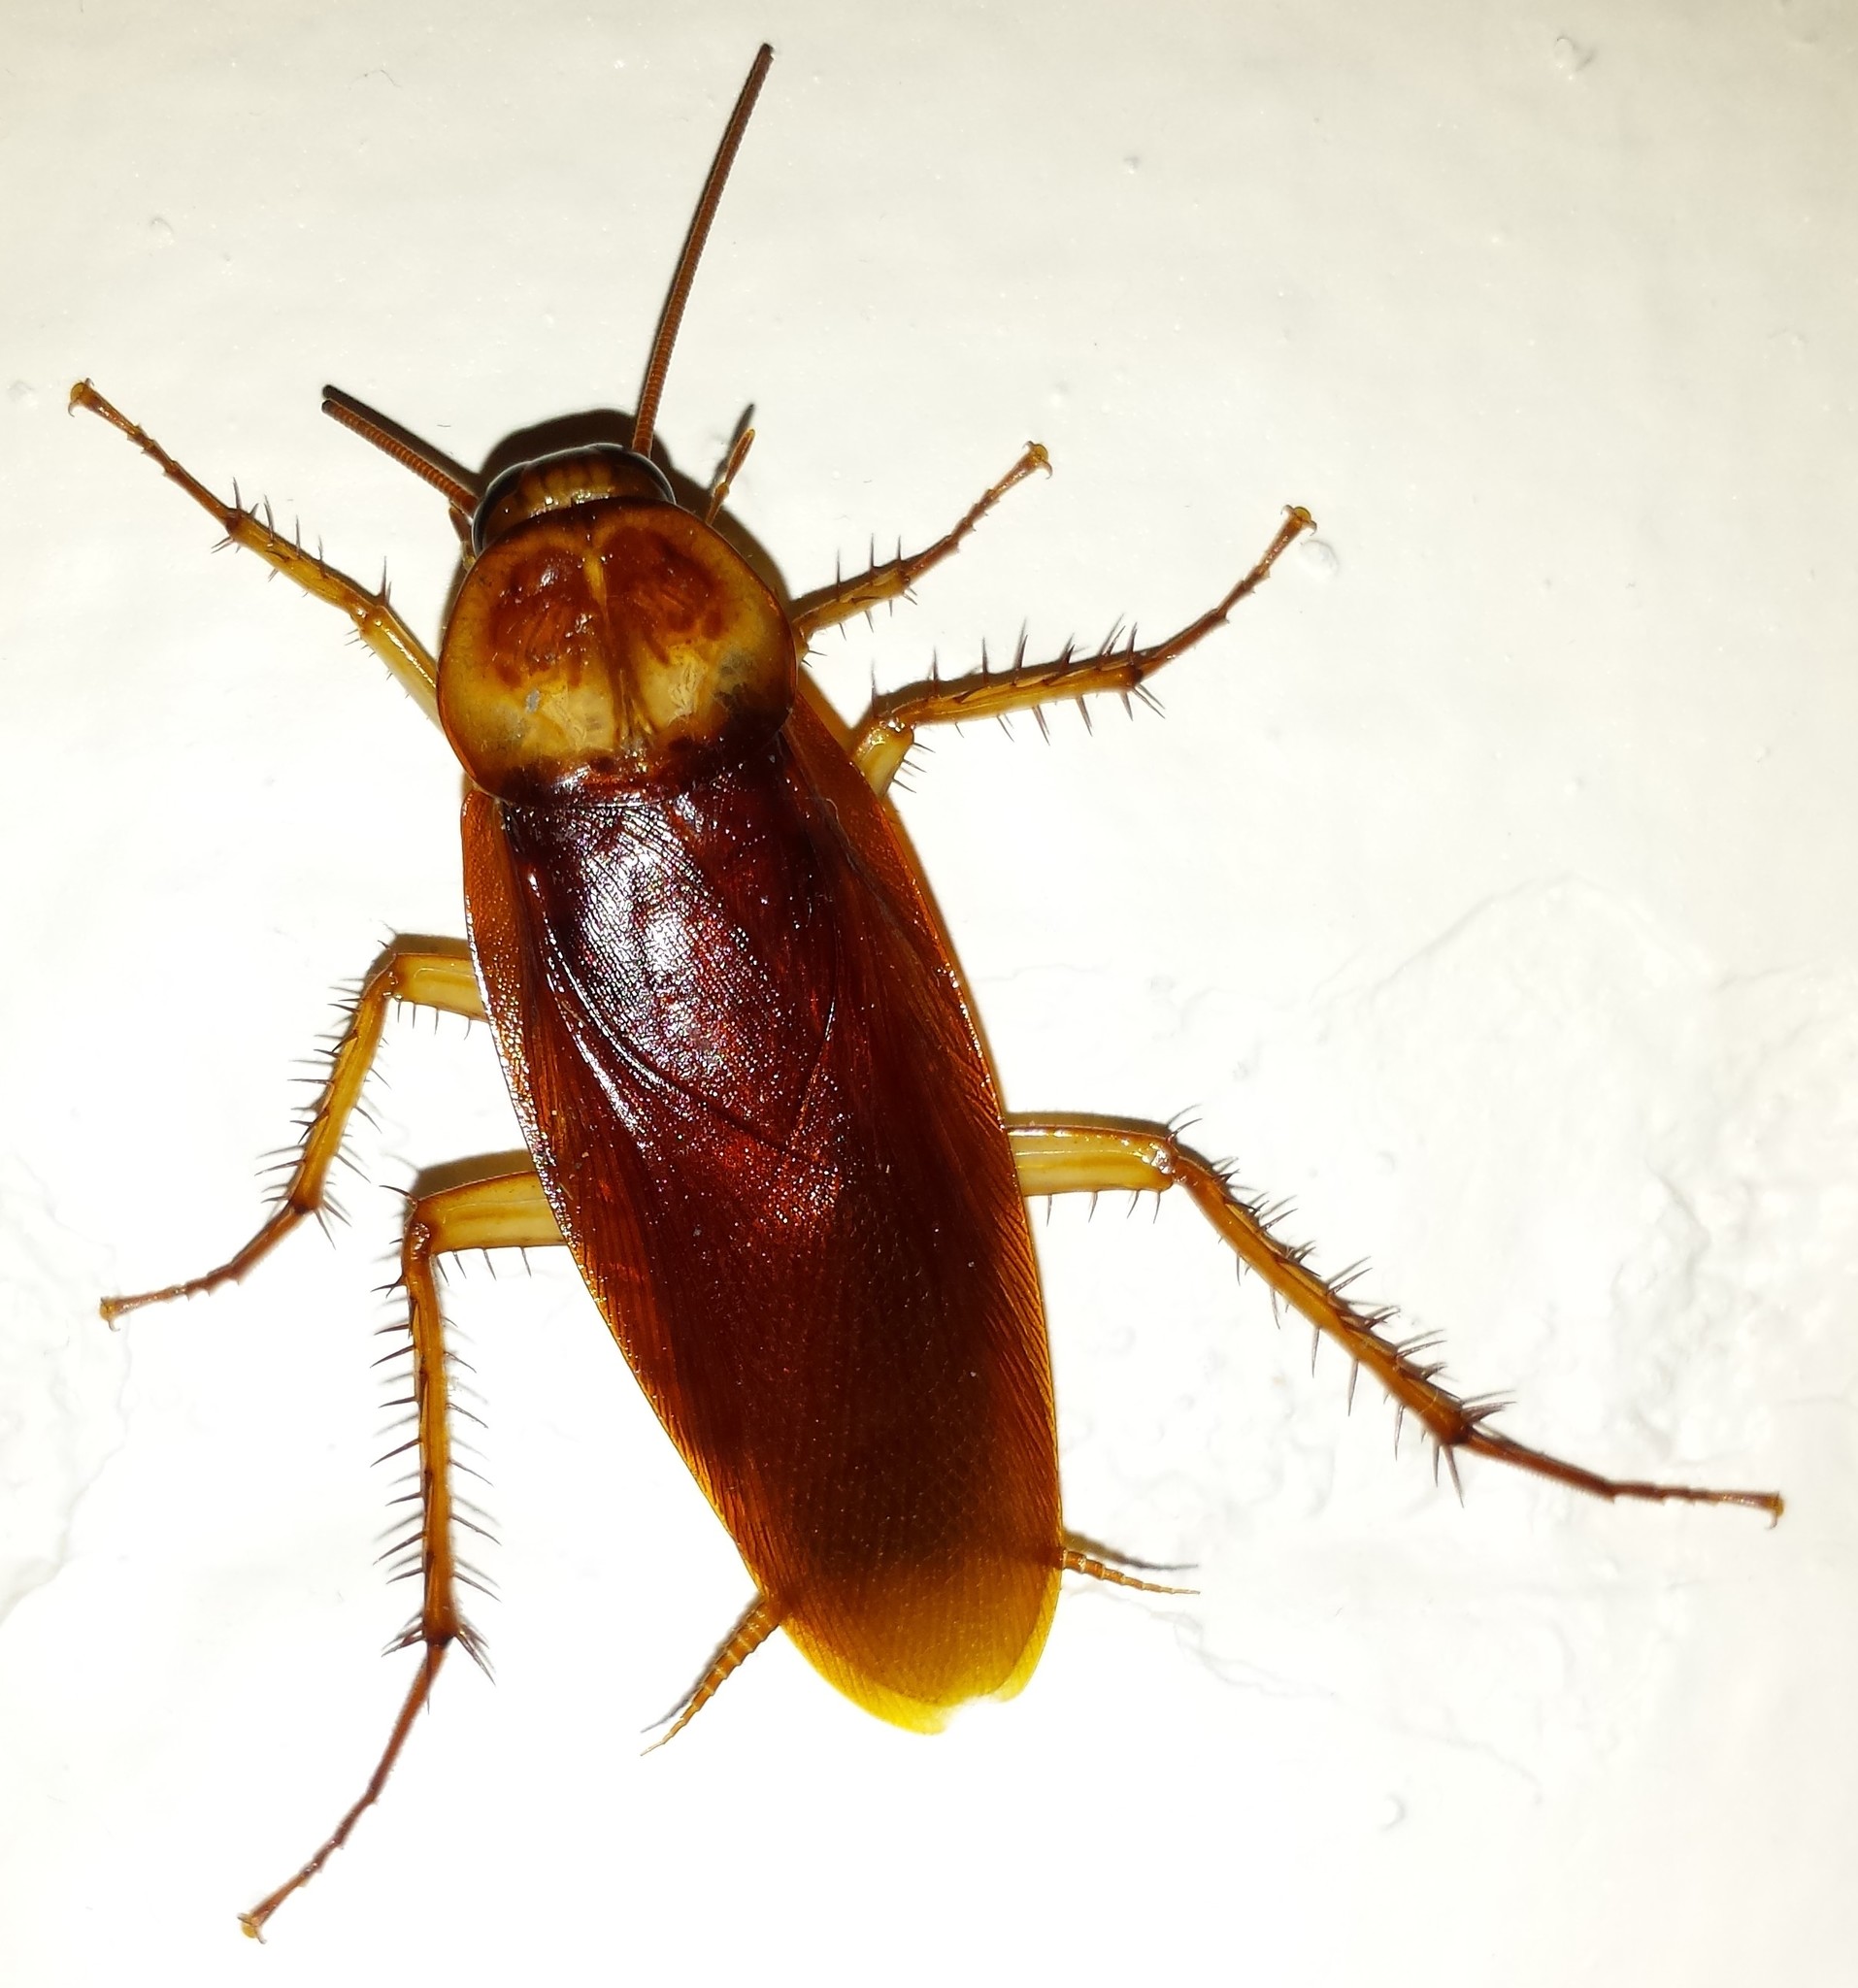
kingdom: Animalia
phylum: Arthropoda
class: Insecta
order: Blattodea
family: Blattidae
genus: Periplaneta
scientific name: Periplaneta americana
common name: American cockroach
